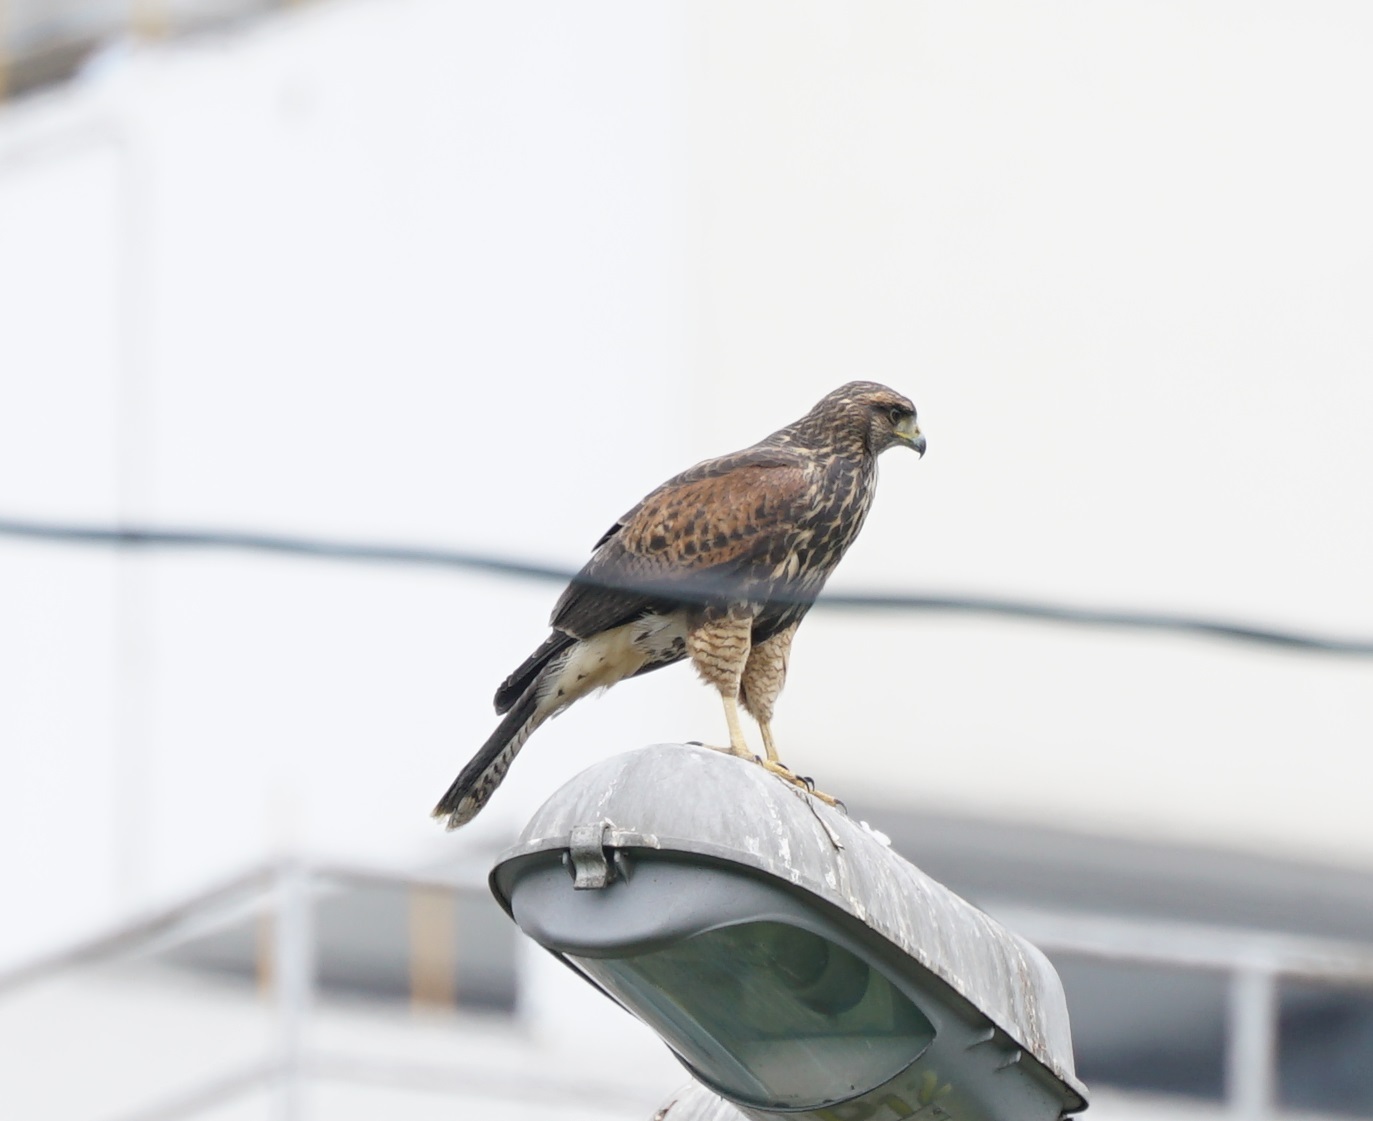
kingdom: Animalia
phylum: Chordata
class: Aves
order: Accipitriformes
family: Accipitridae
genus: Parabuteo
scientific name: Parabuteo unicinctus
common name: Harris's hawk
